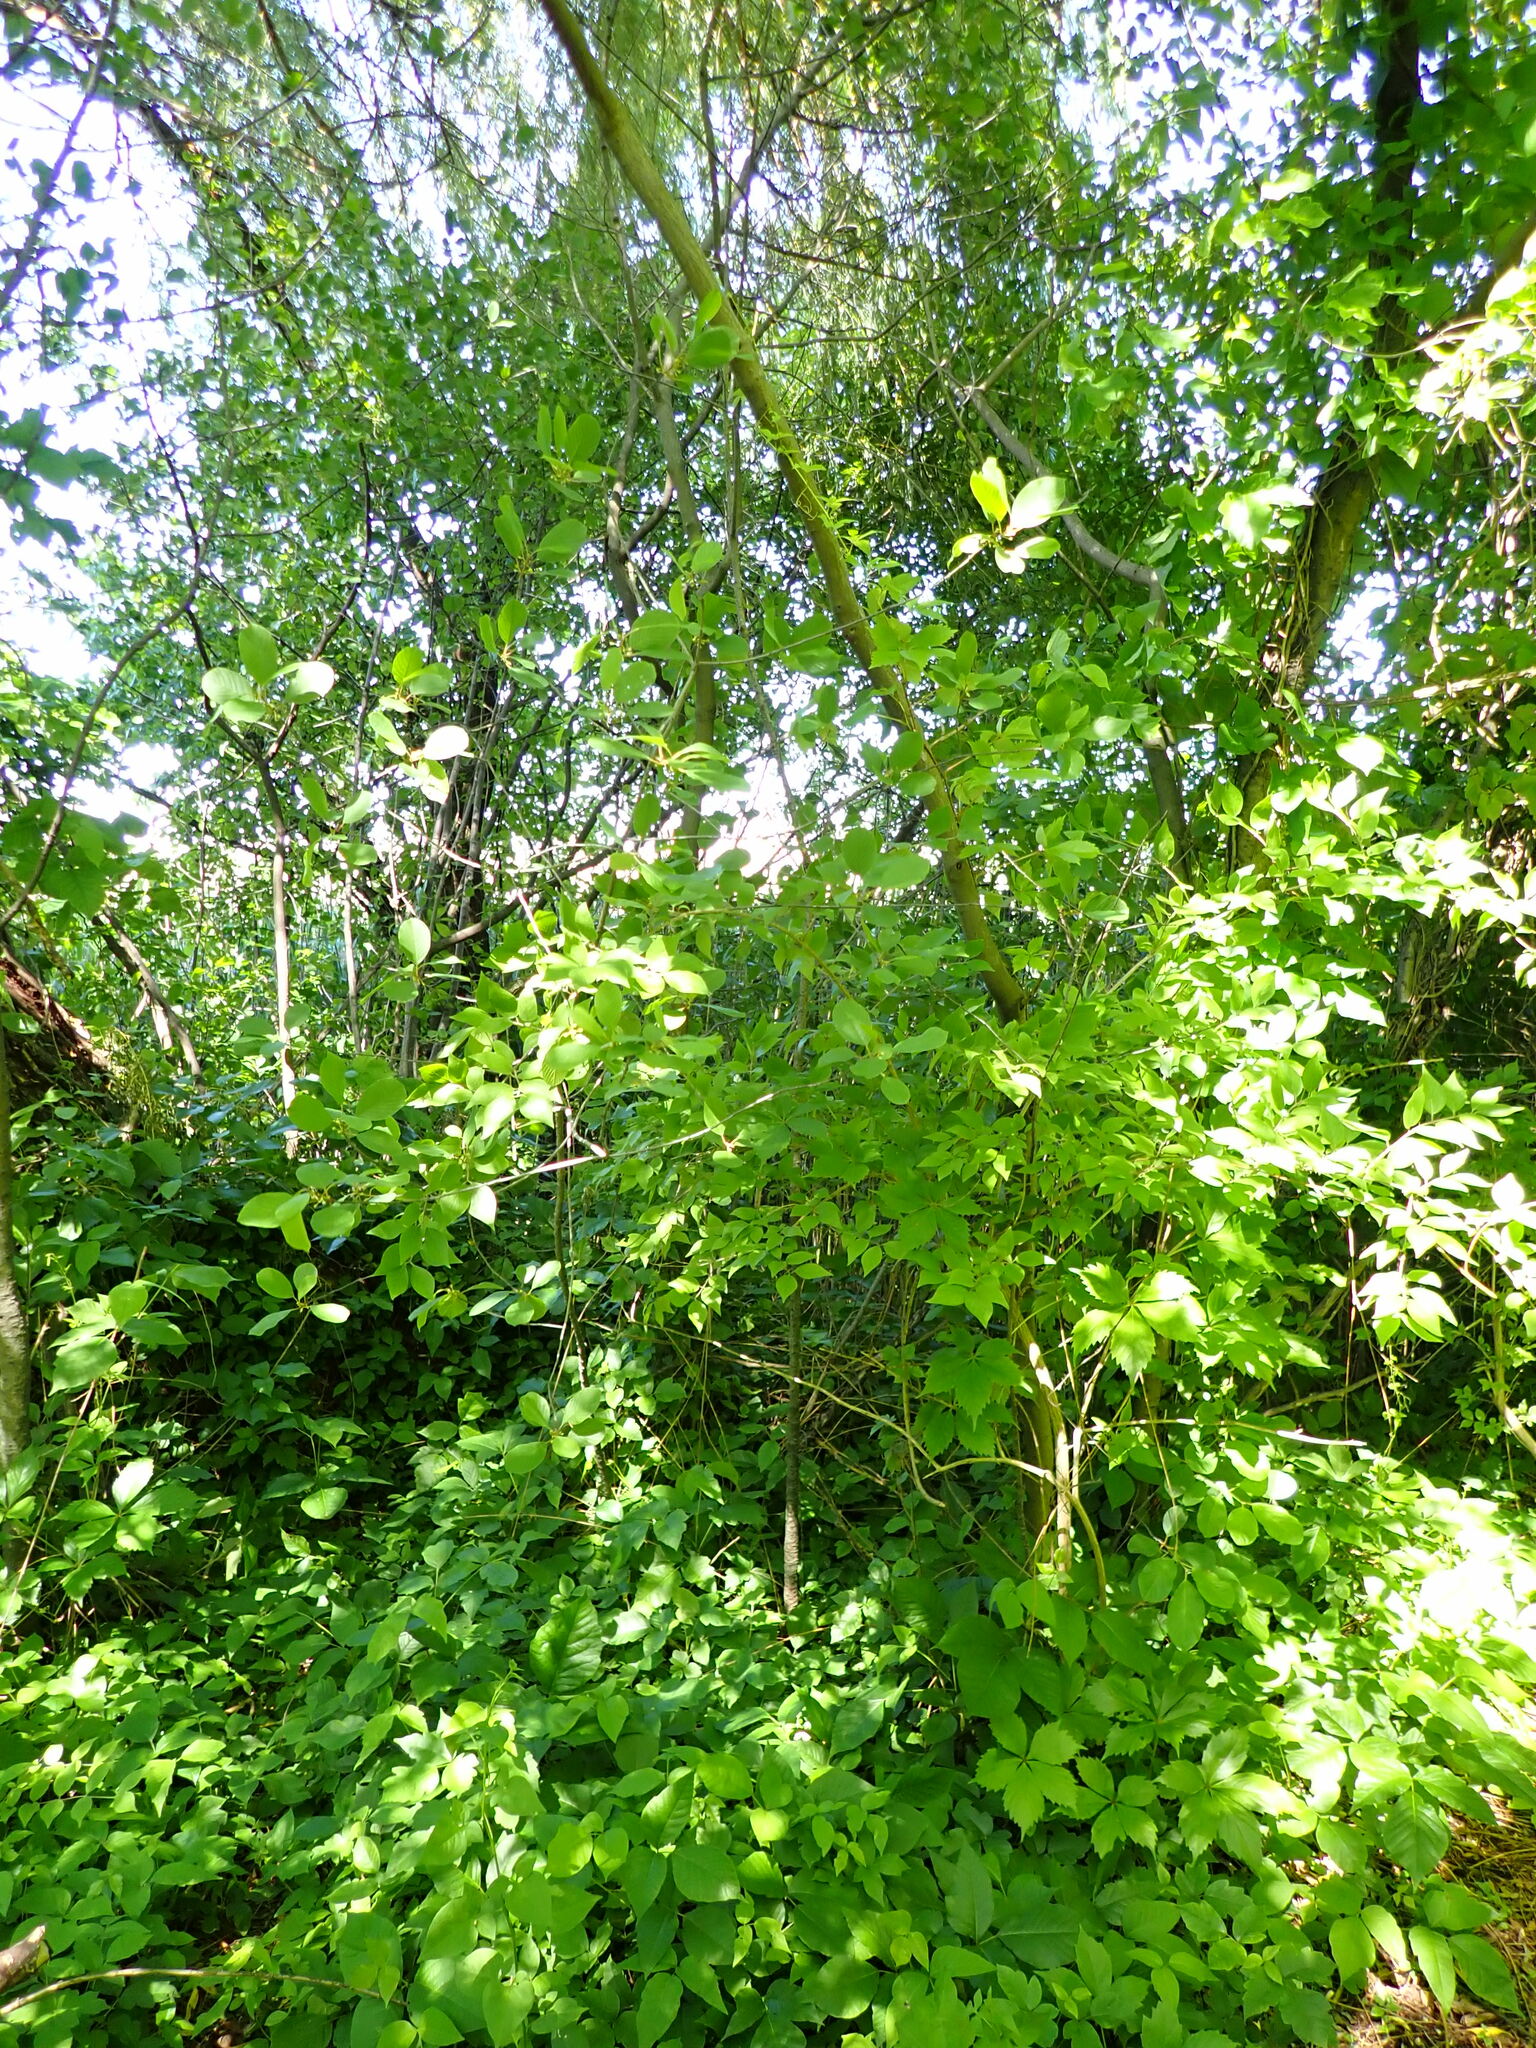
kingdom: Plantae
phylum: Tracheophyta
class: Magnoliopsida
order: Rosales
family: Rhamnaceae
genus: Frangula
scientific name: Frangula alnus
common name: Alder buckthorn
